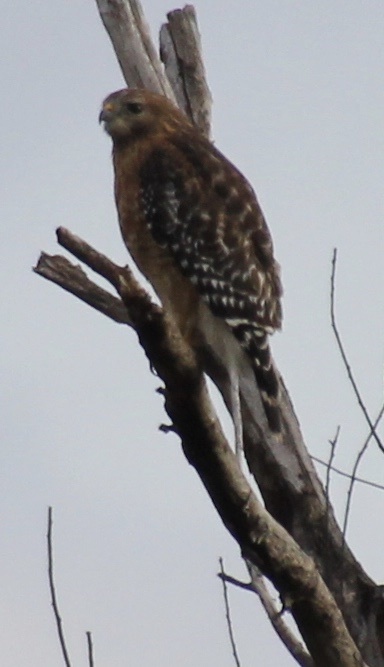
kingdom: Animalia
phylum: Chordata
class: Aves
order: Accipitriformes
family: Accipitridae
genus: Buteo
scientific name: Buteo lineatus
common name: Red-shouldered hawk
